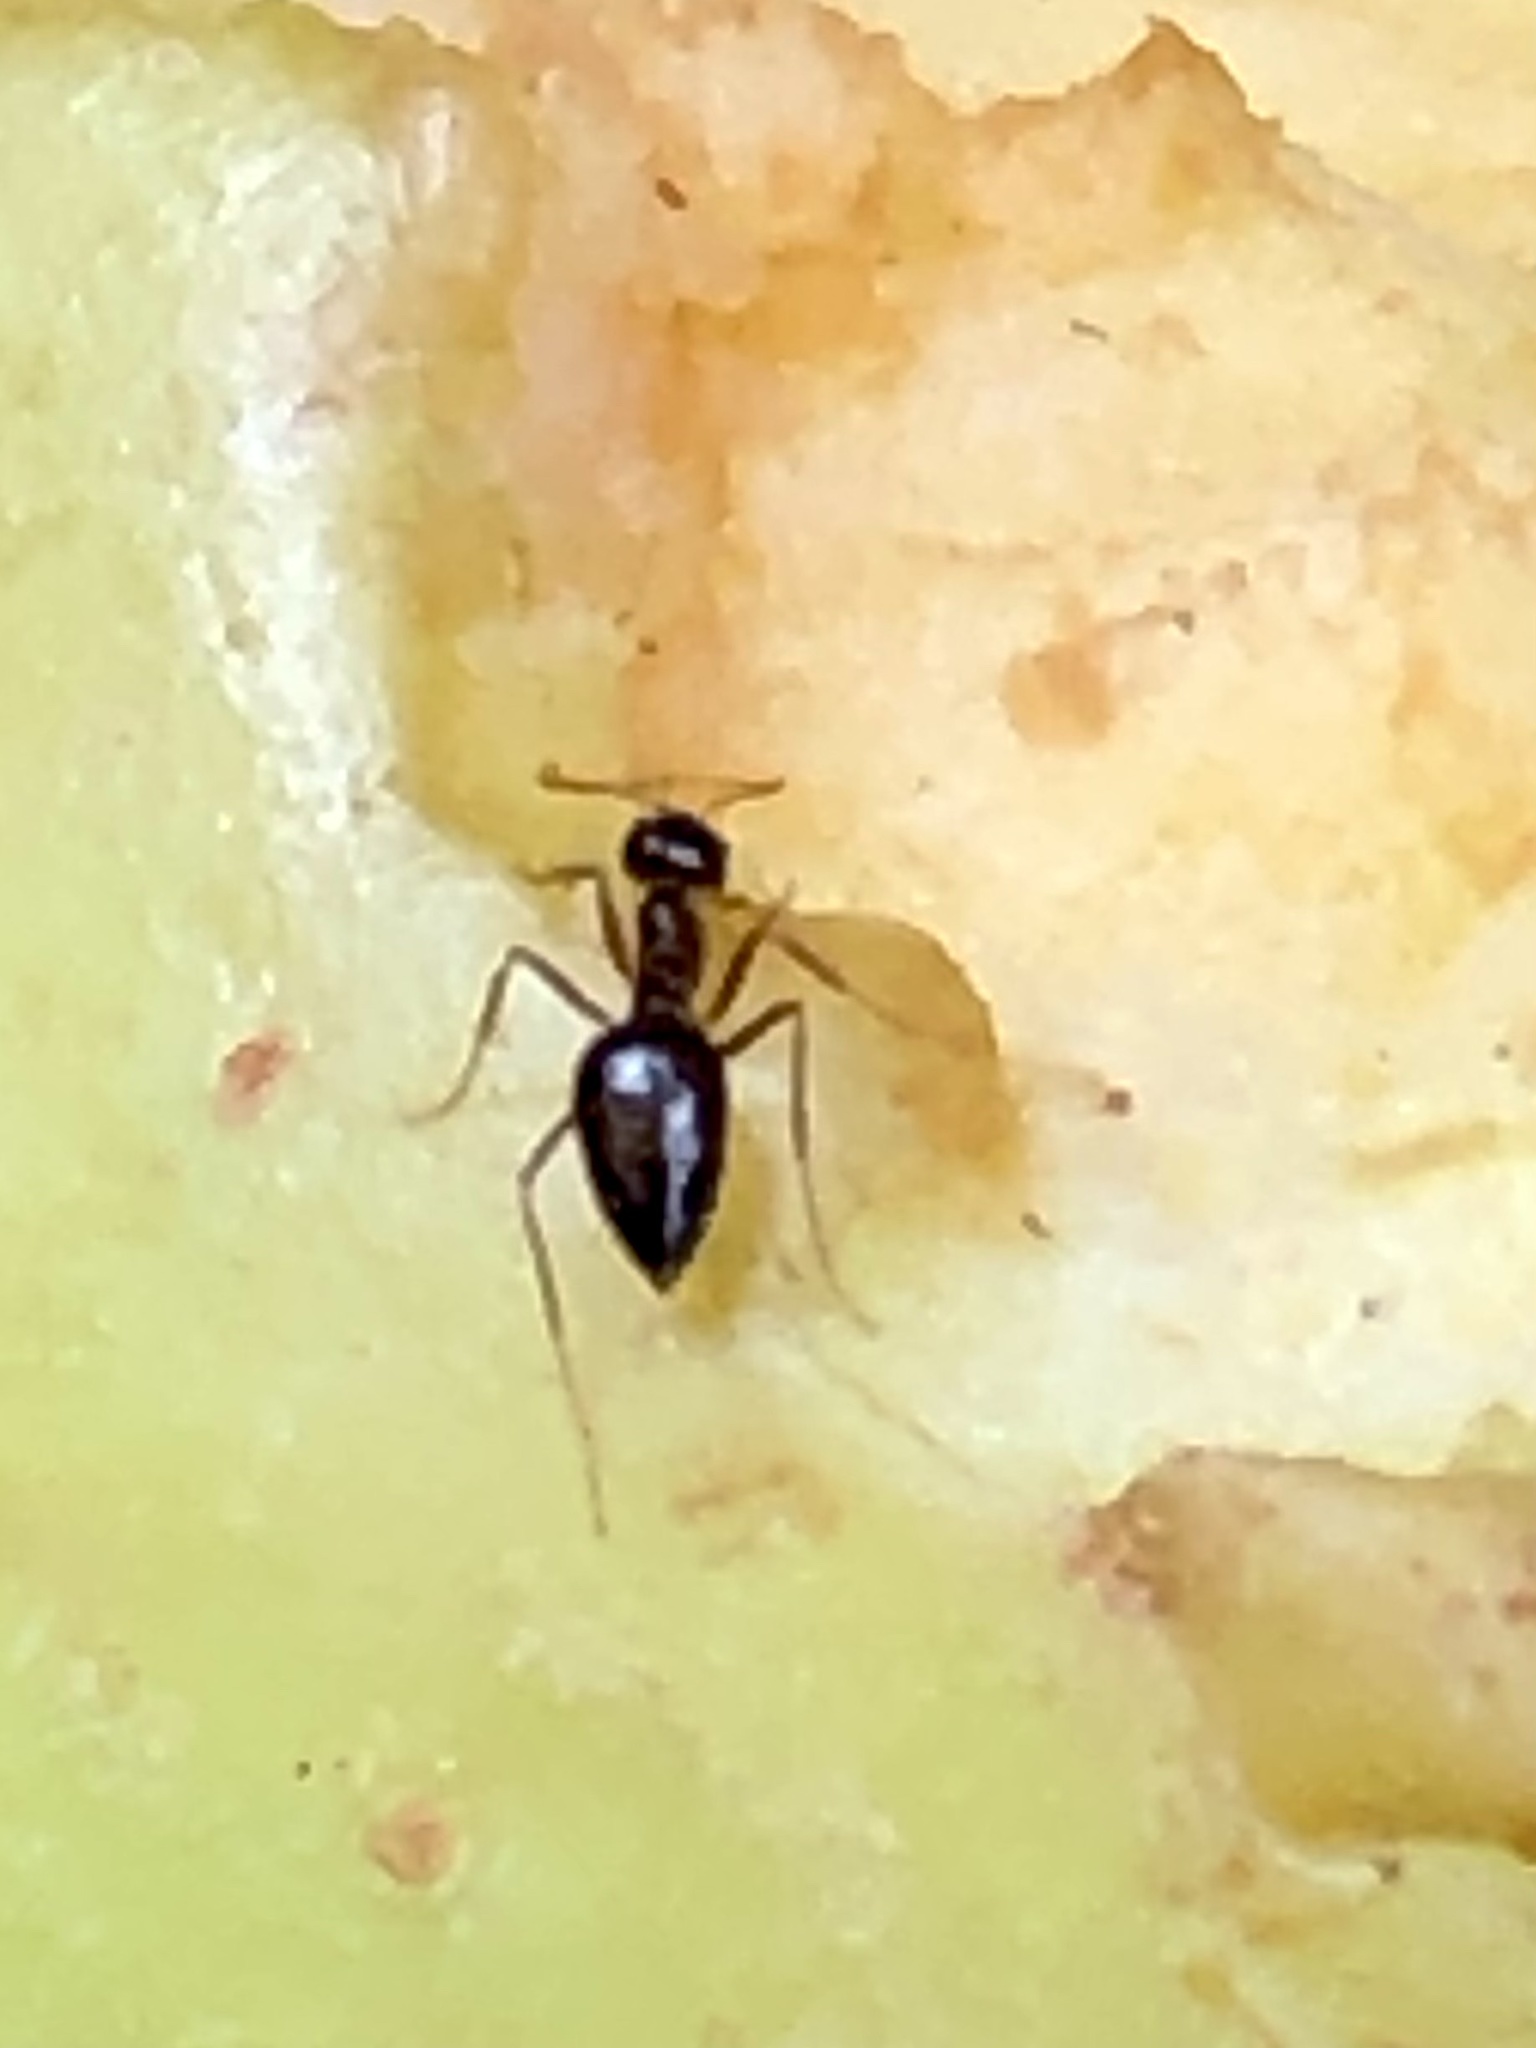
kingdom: Animalia
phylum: Arthropoda
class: Insecta
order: Hymenoptera
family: Formicidae
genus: Prenolepis
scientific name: Prenolepis imparis
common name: Small honey ant
